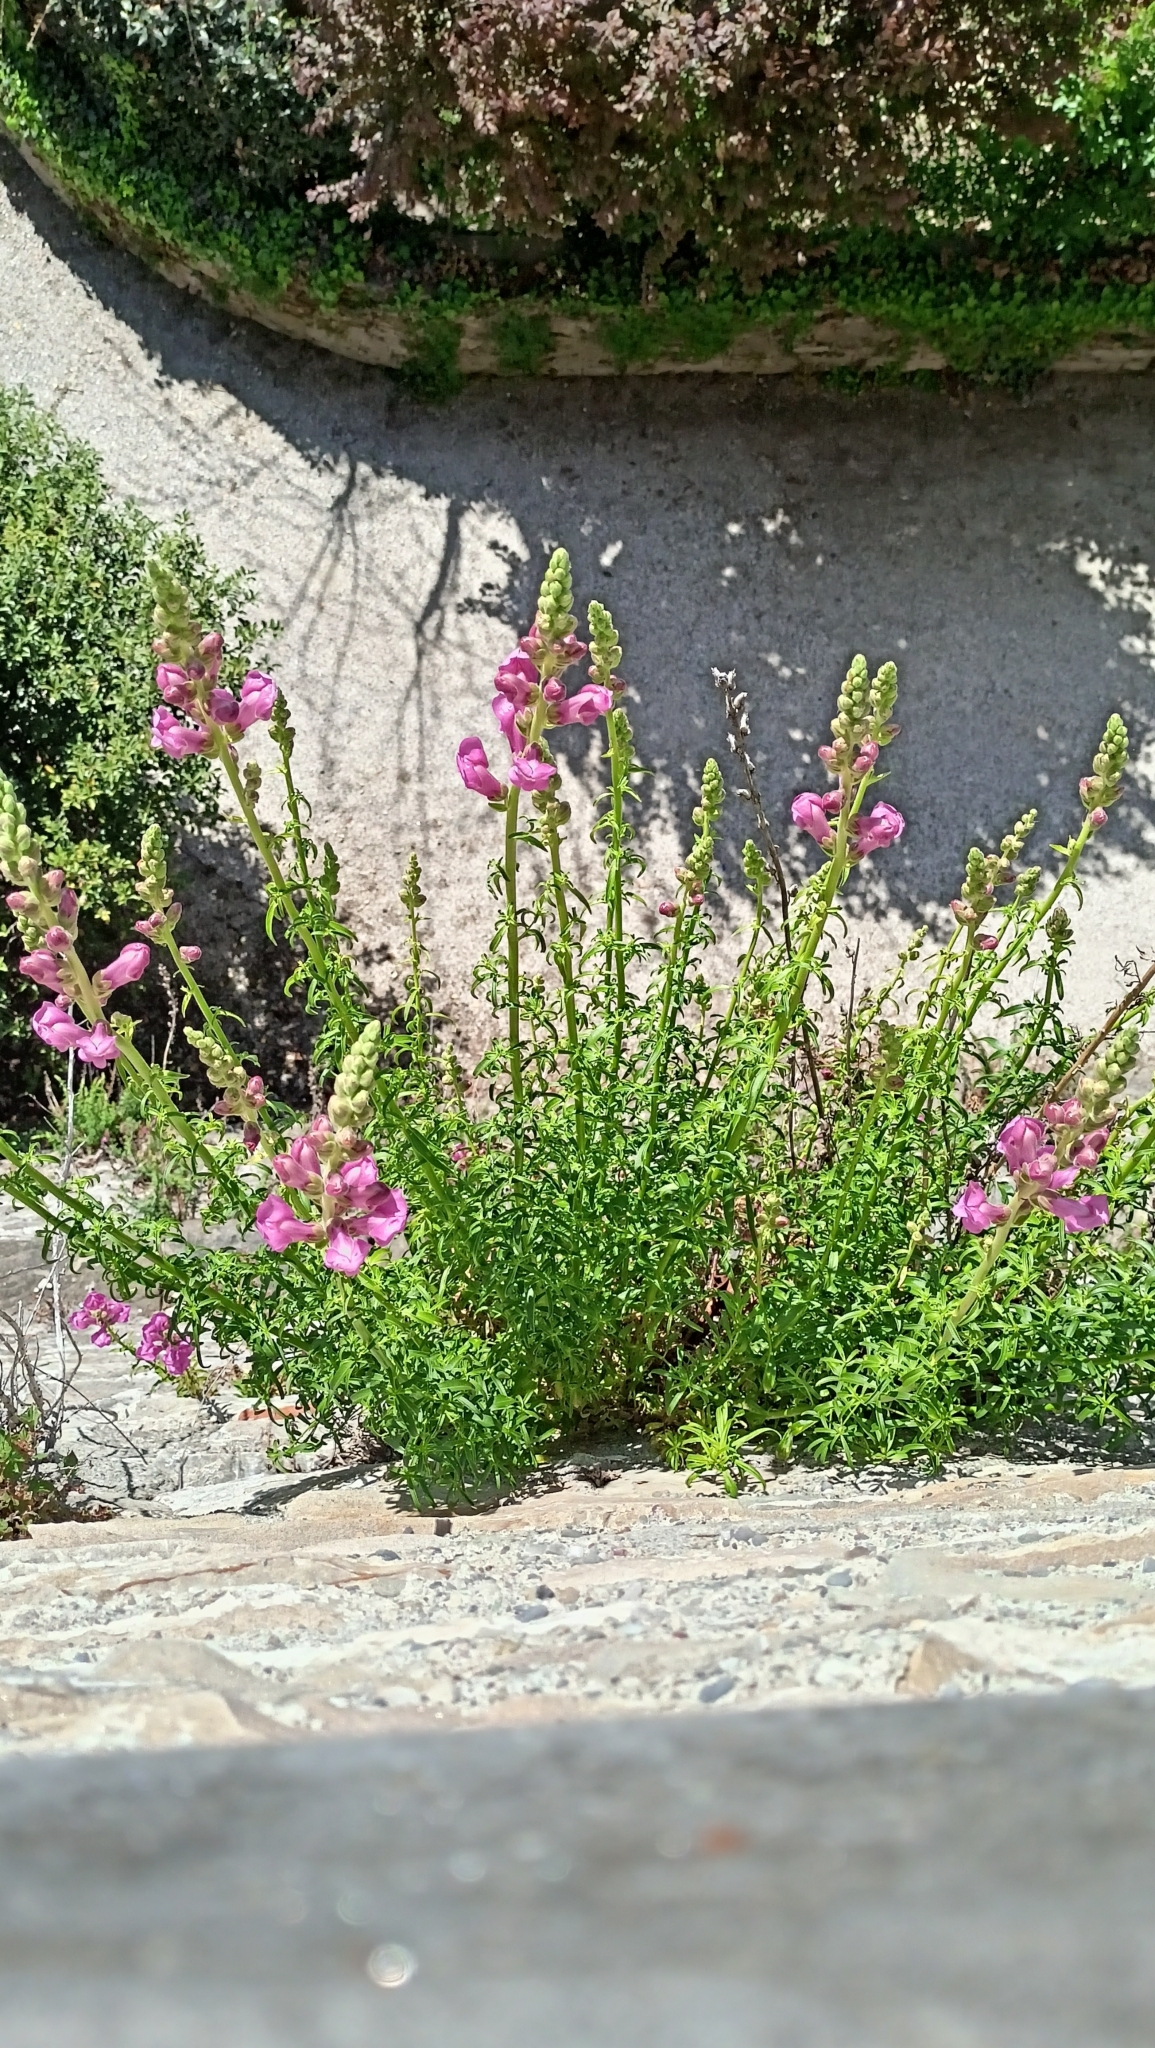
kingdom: Plantae
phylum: Tracheophyta
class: Magnoliopsida
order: Lamiales
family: Plantaginaceae
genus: Antirrhinum
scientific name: Antirrhinum tortuosum
